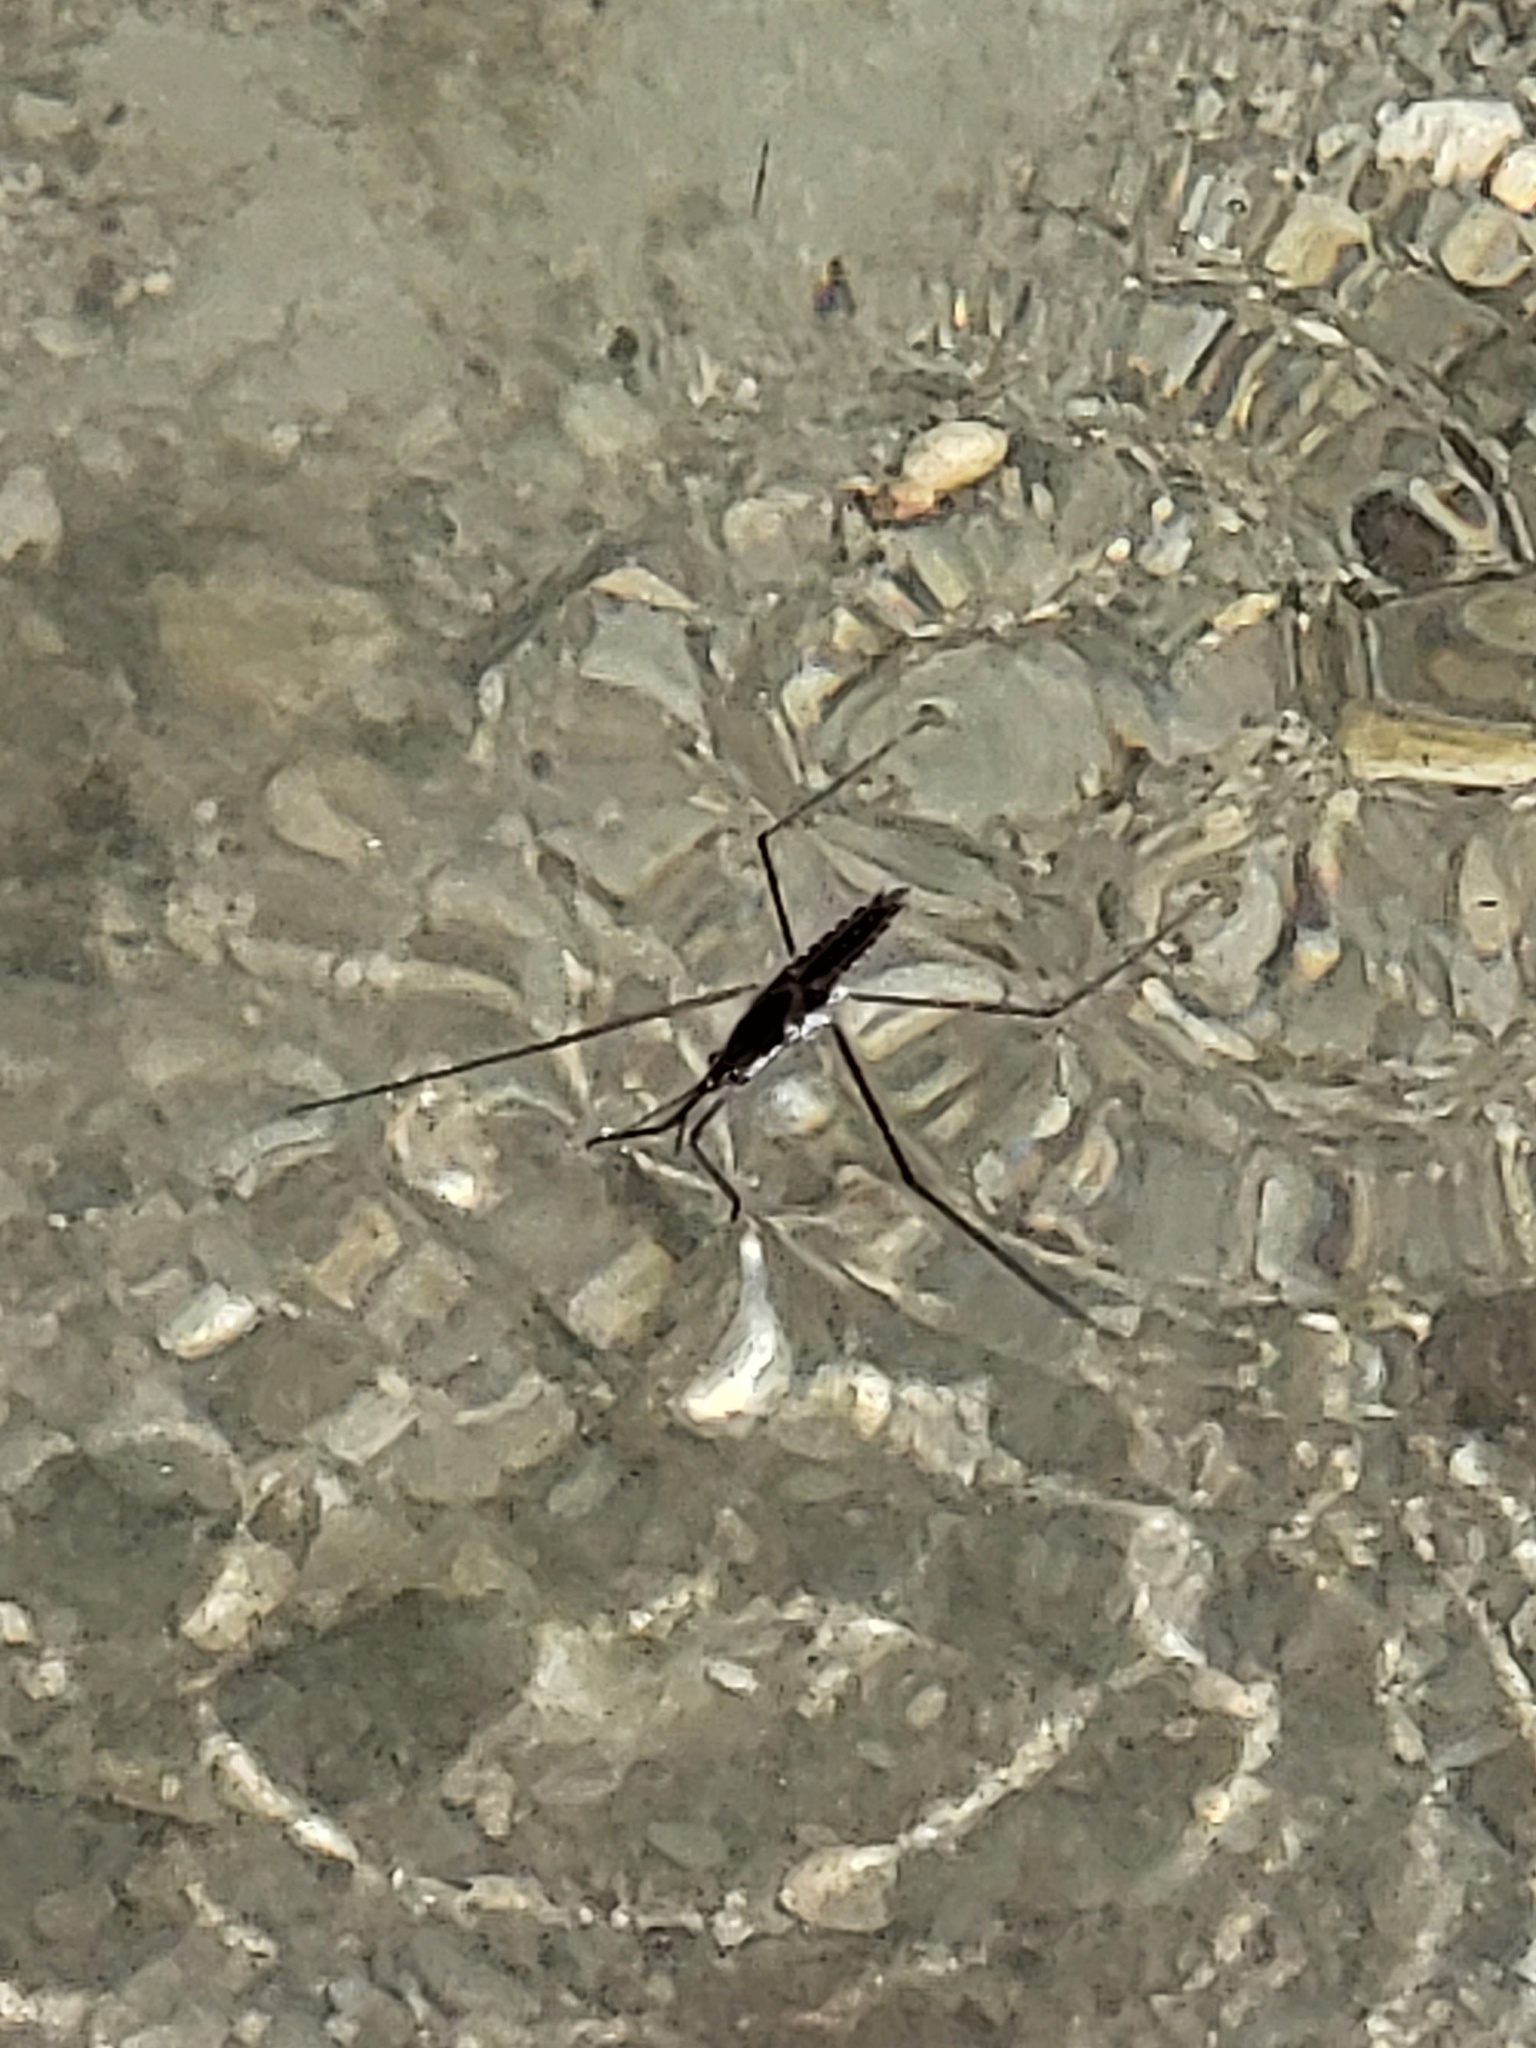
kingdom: Animalia
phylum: Arthropoda
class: Insecta
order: Hemiptera
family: Gerridae
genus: Aquarius
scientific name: Aquarius remigis
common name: Common water strider
